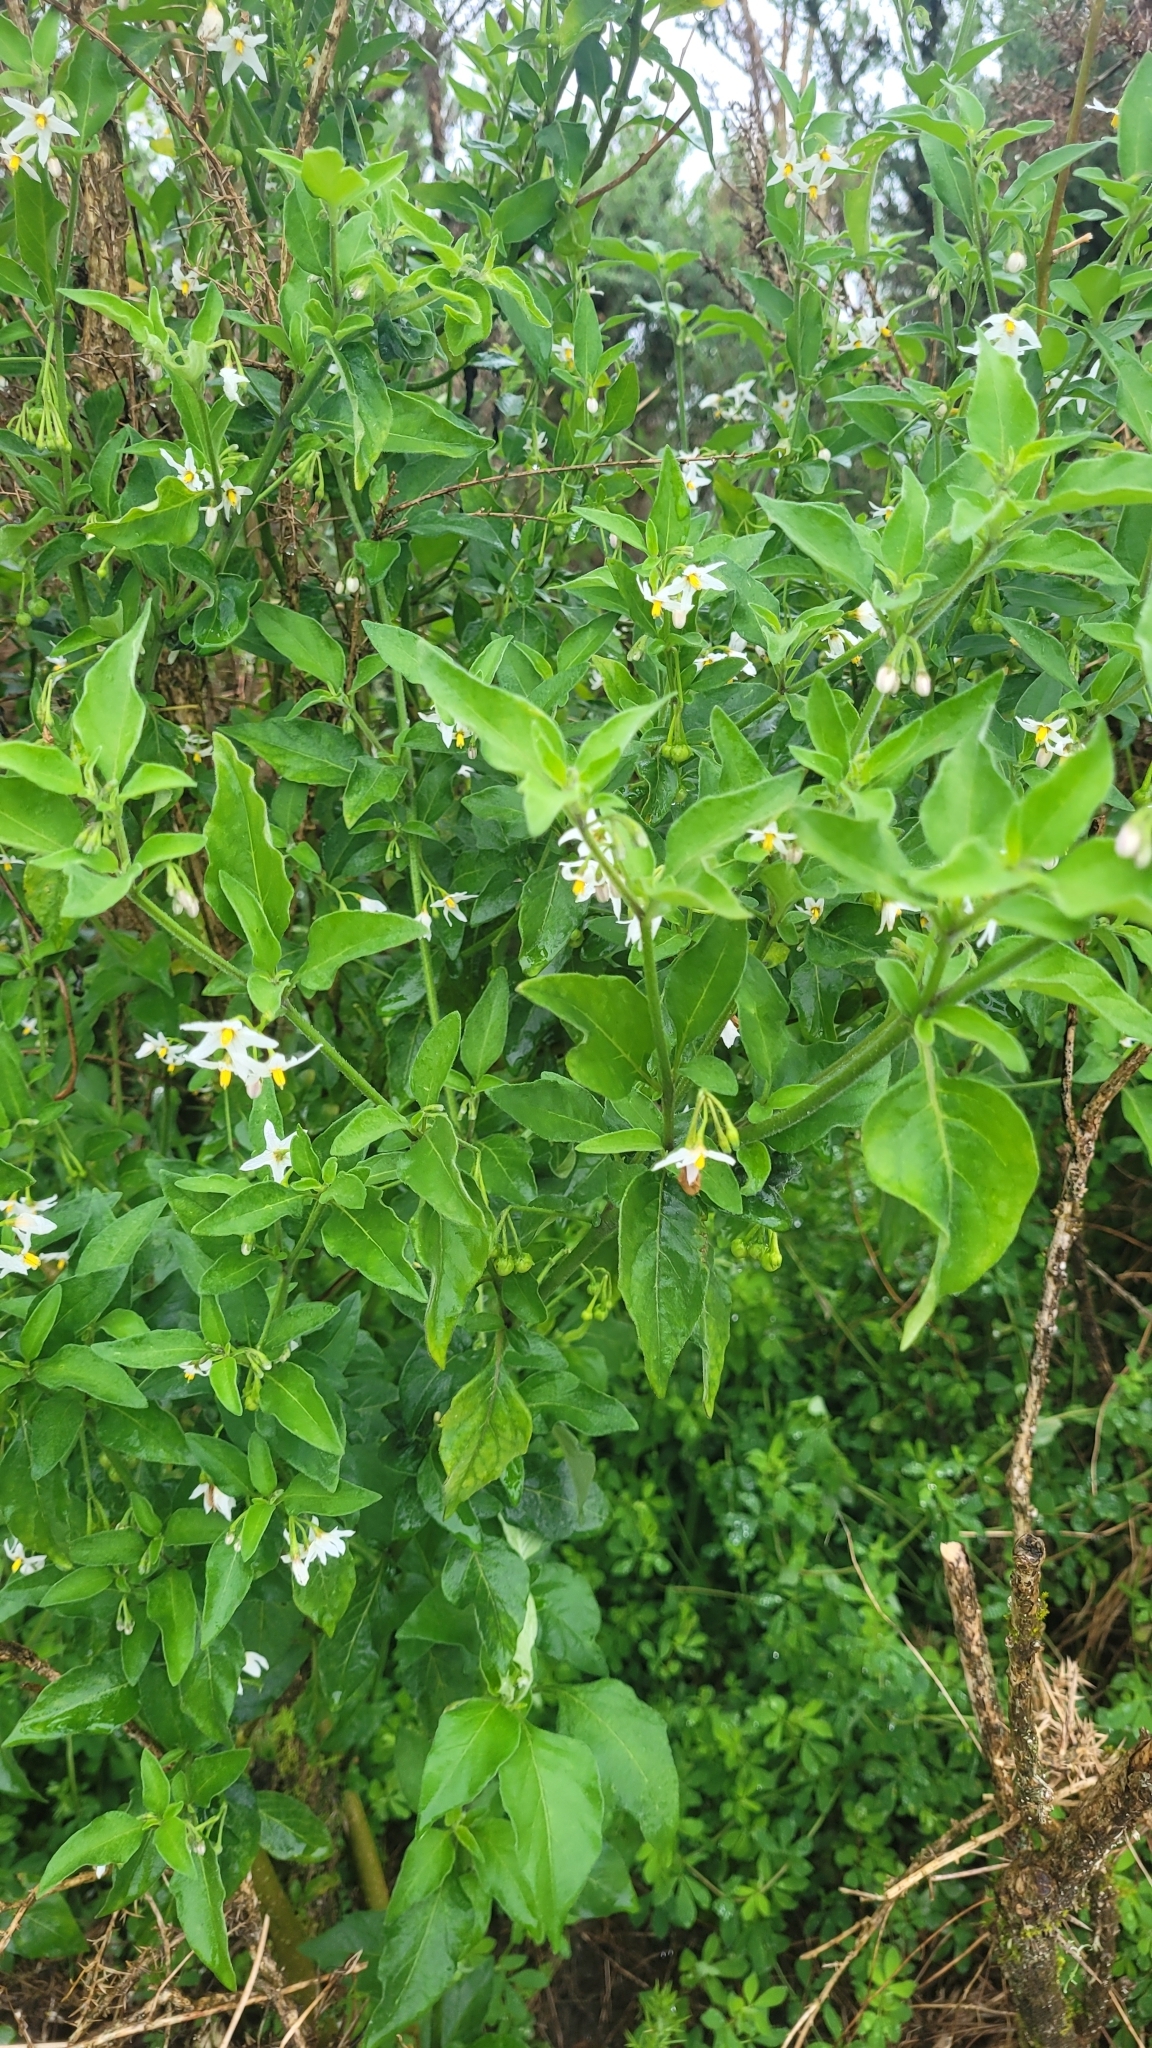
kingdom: Plantae
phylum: Tracheophyta
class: Magnoliopsida
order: Solanales
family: Solanaceae
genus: Solanum
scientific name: Solanum chenopodioides
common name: Tall nightshade
